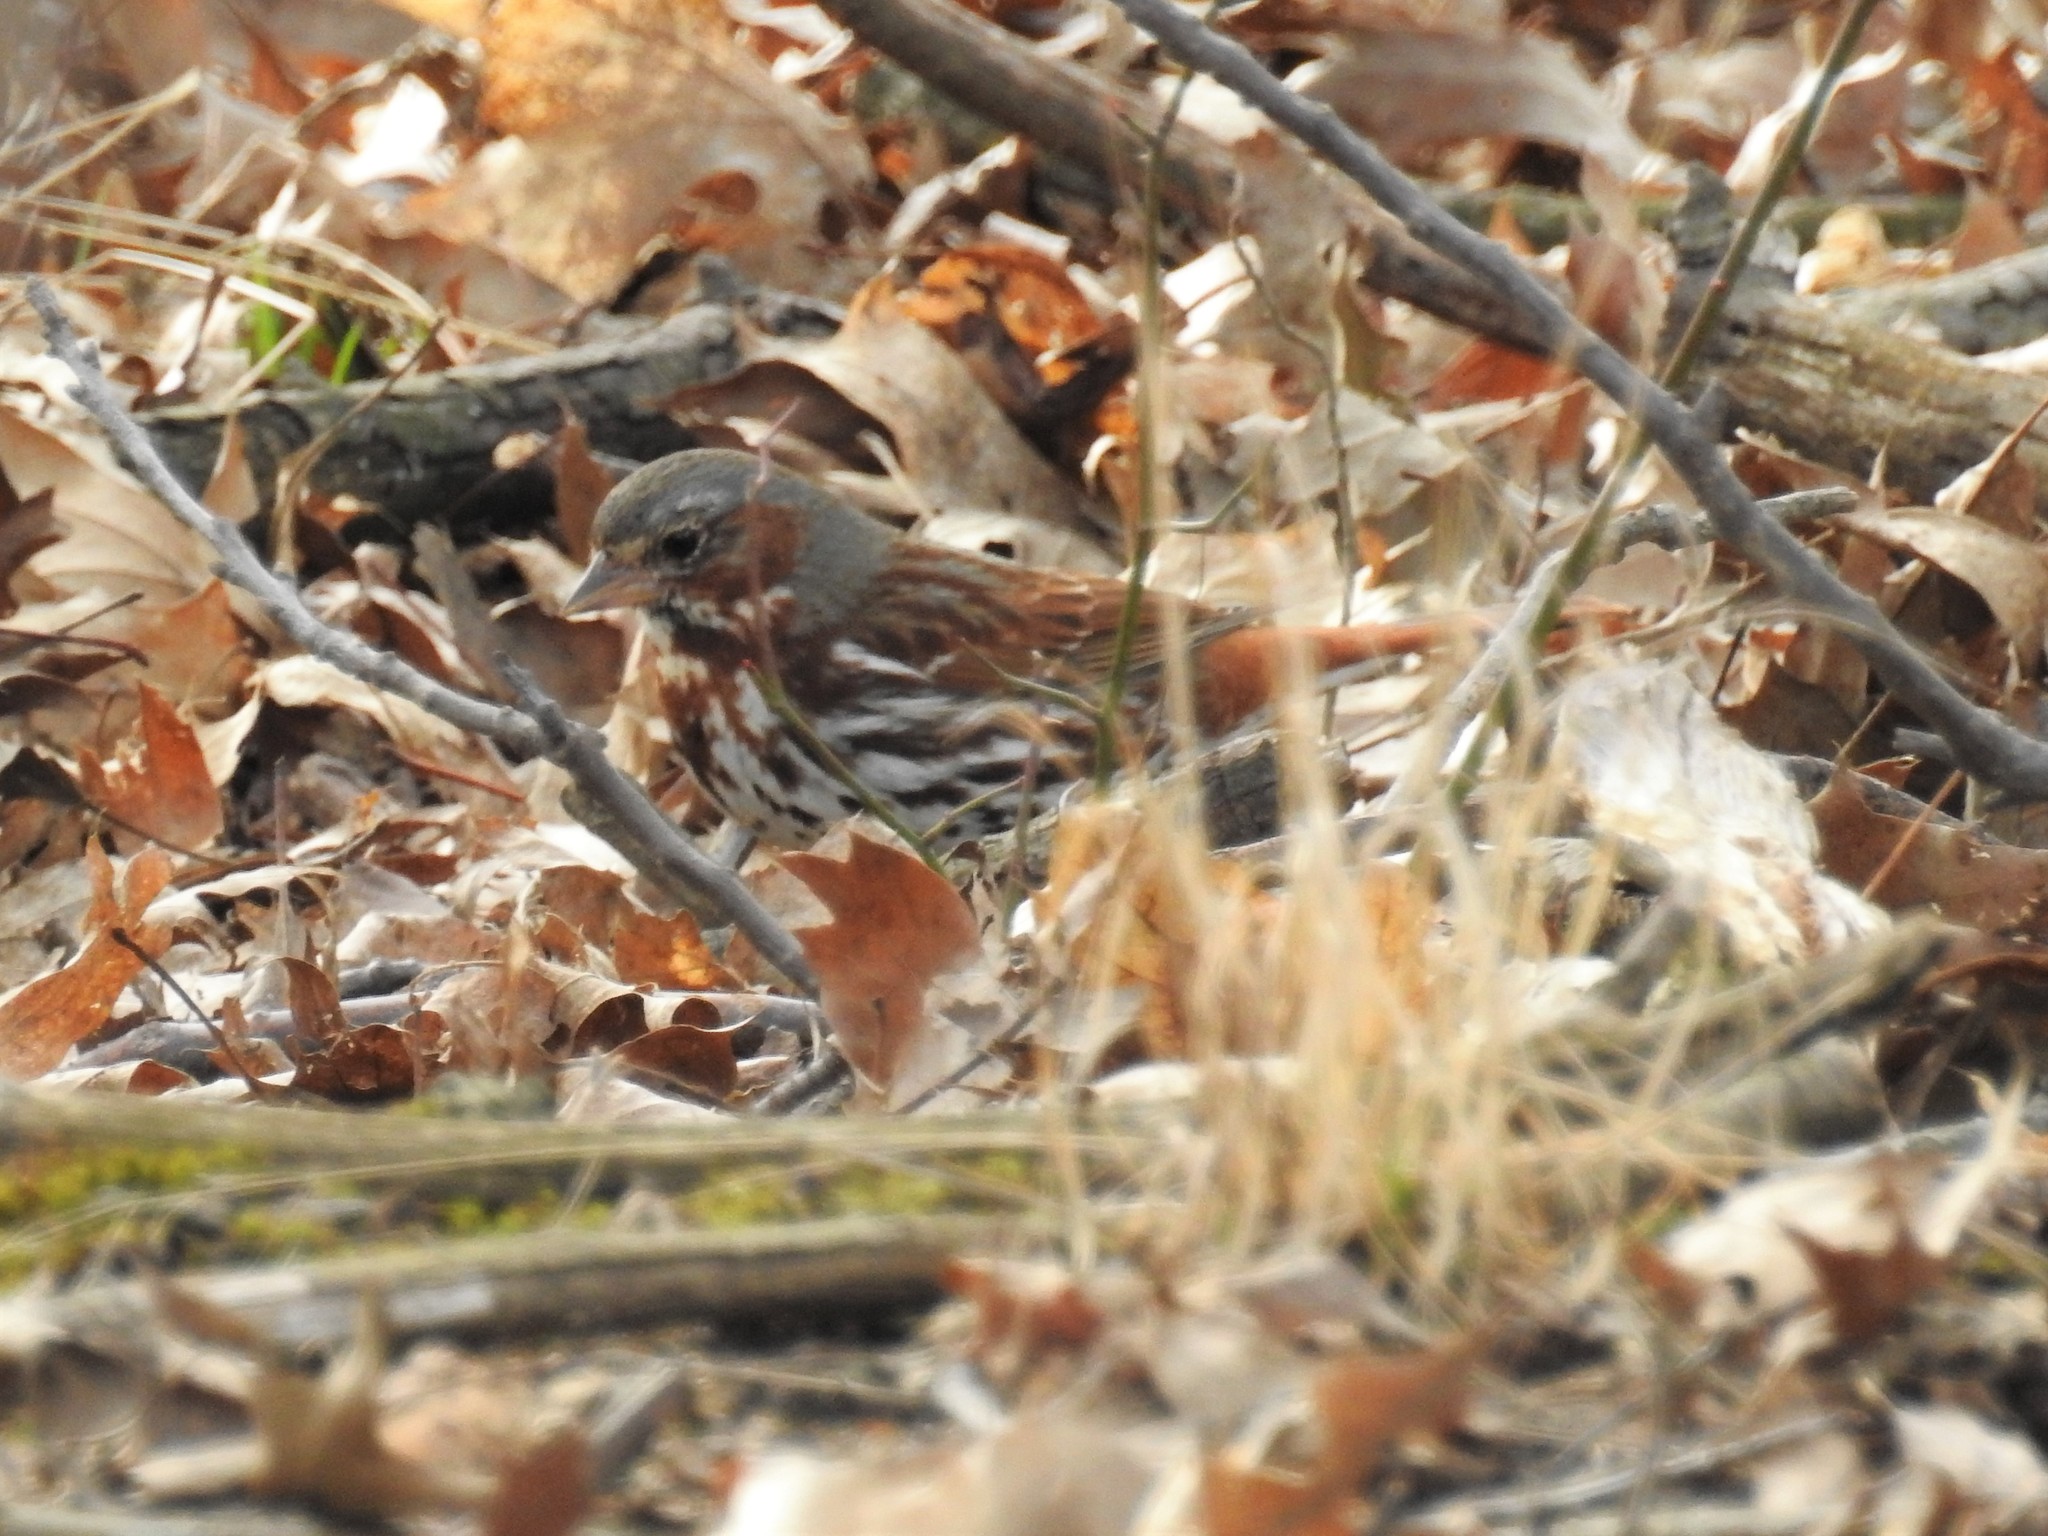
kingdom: Animalia
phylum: Chordata
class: Aves
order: Passeriformes
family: Passerellidae
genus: Passerella
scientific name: Passerella iliaca
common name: Fox sparrow
